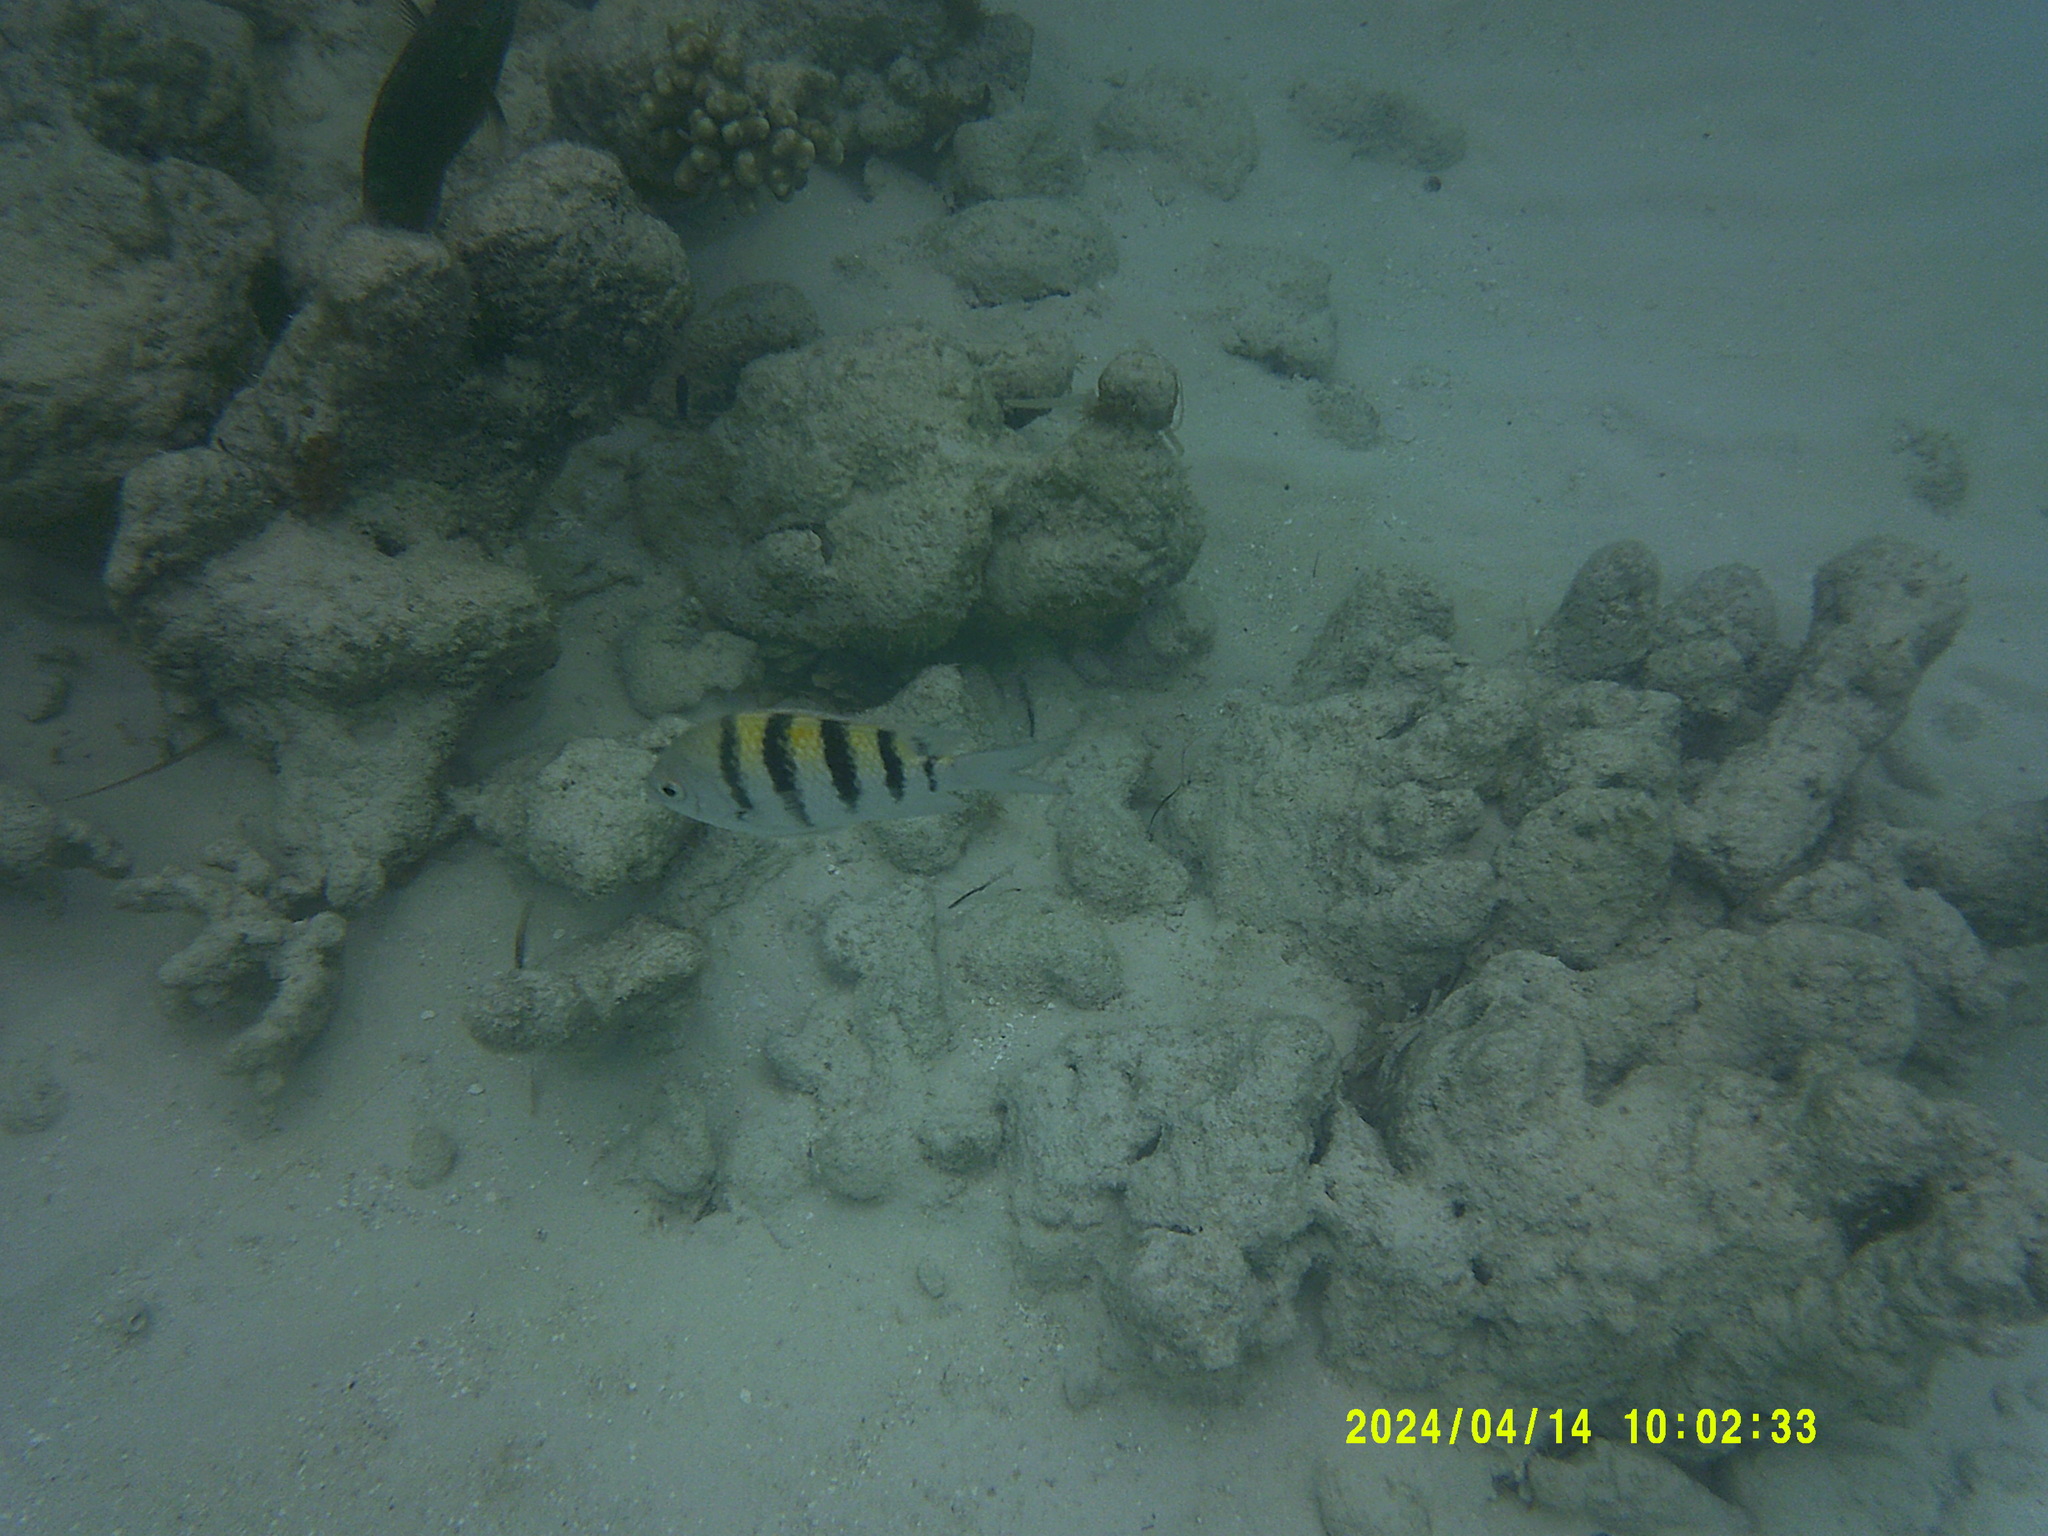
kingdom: Animalia
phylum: Chordata
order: Perciformes
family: Pomacentridae
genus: Abudefduf
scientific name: Abudefduf saxatilis
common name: Sergeant major
